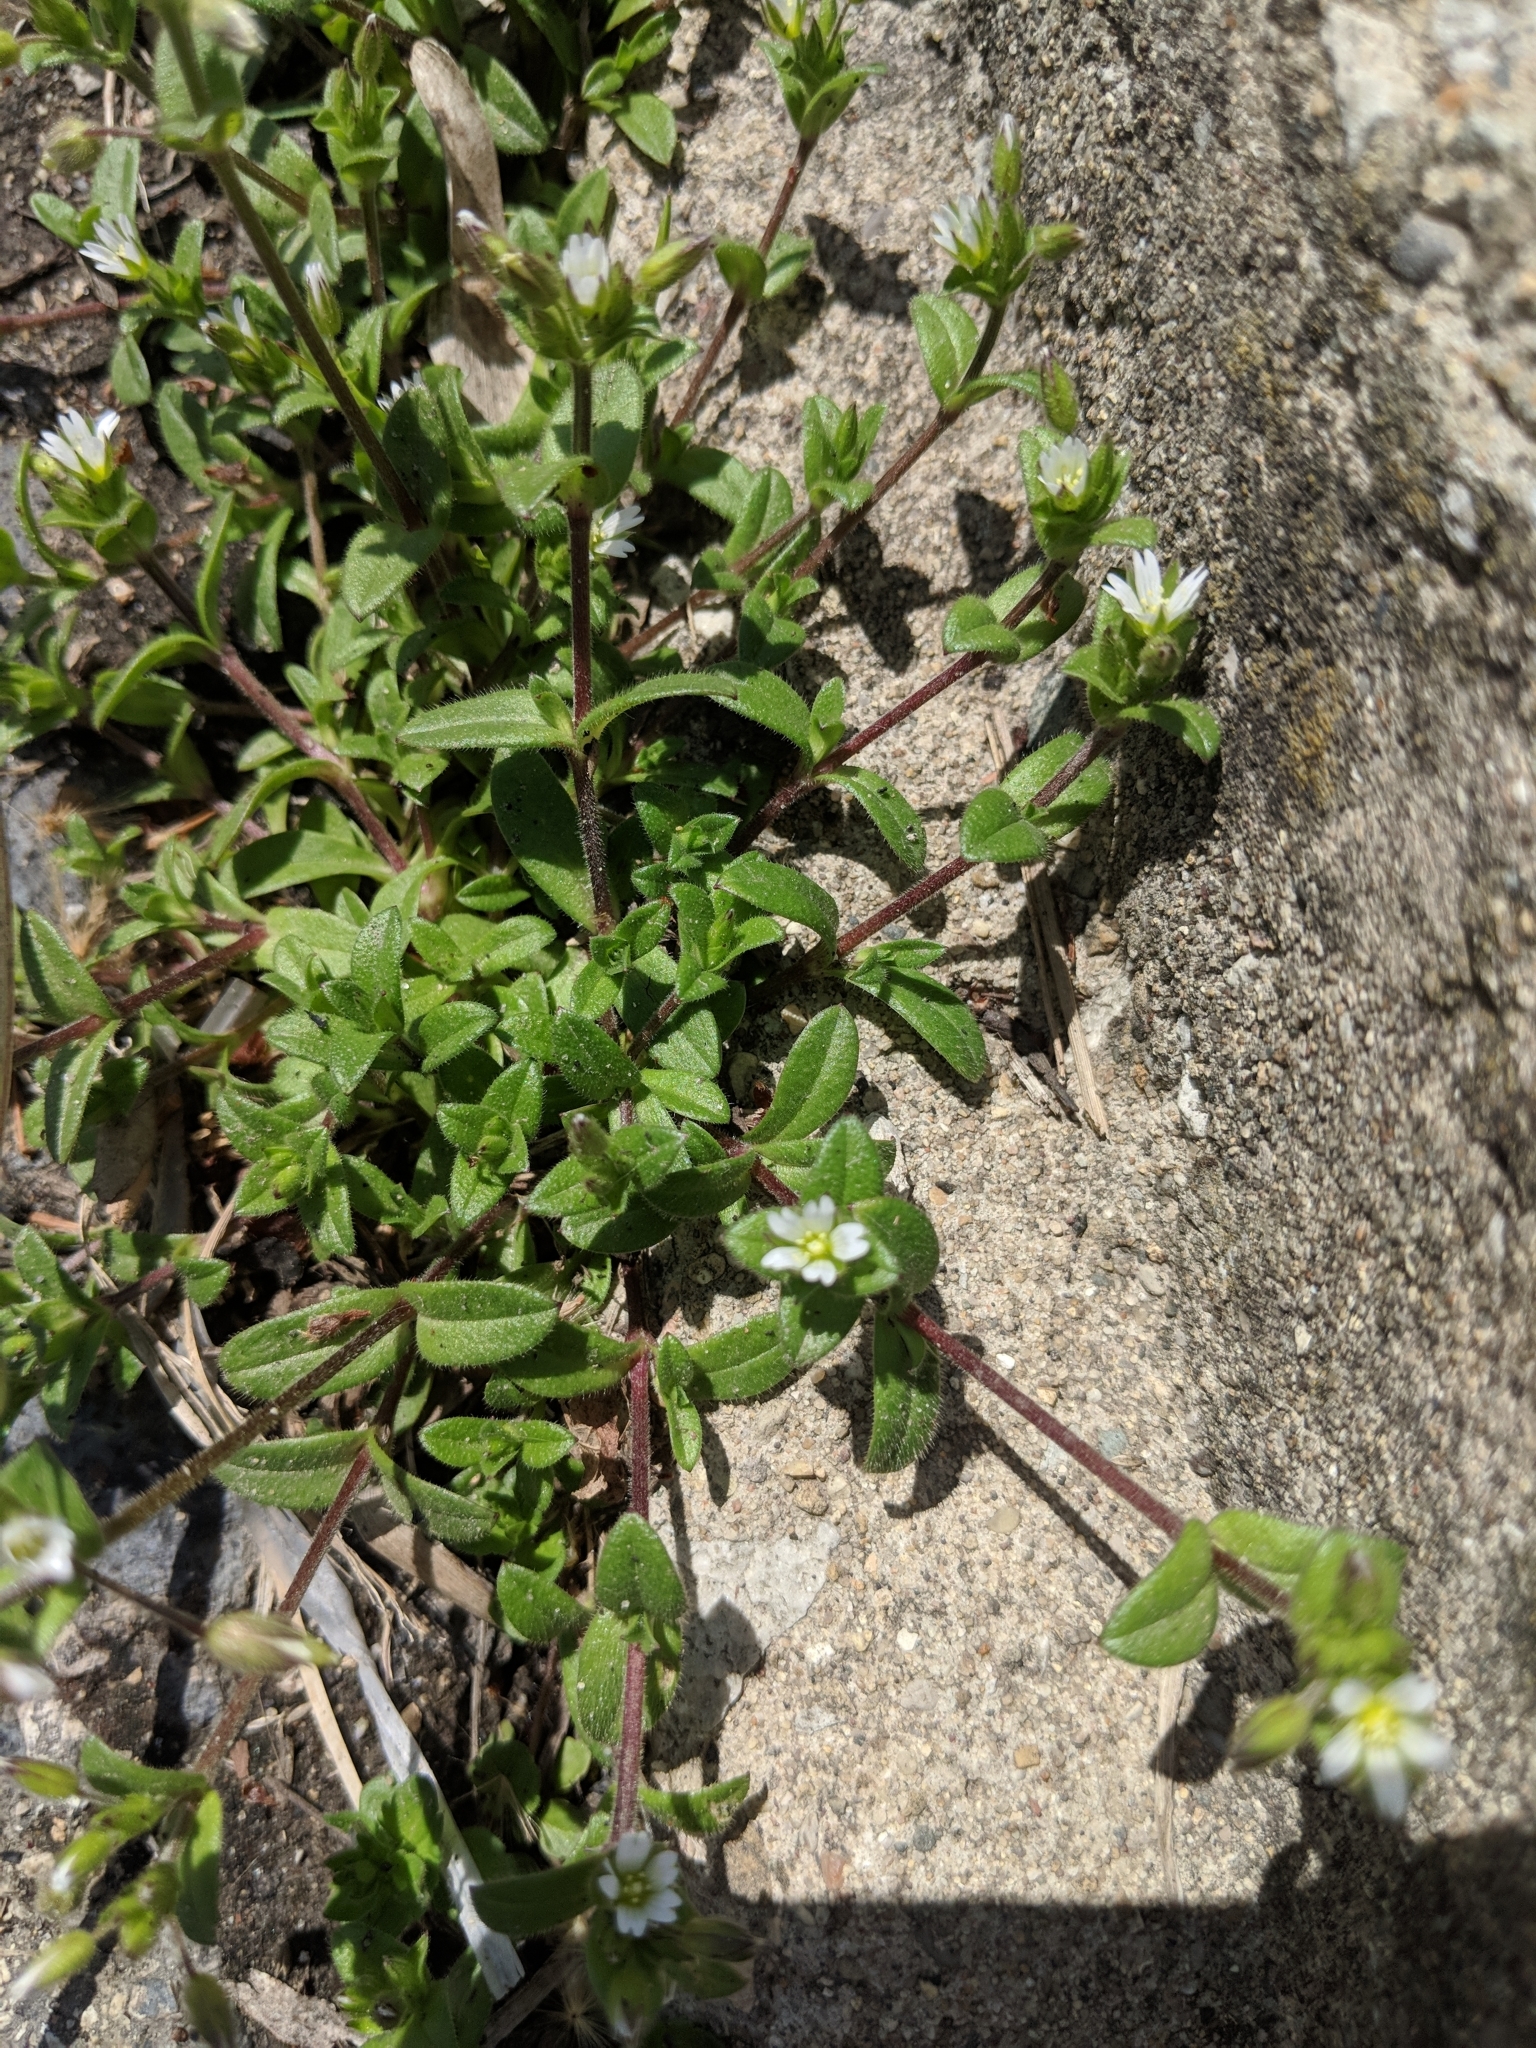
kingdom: Plantae
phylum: Tracheophyta
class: Magnoliopsida
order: Caryophyllales
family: Caryophyllaceae
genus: Cerastium
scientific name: Cerastium fontanum
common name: Common mouse-ear
